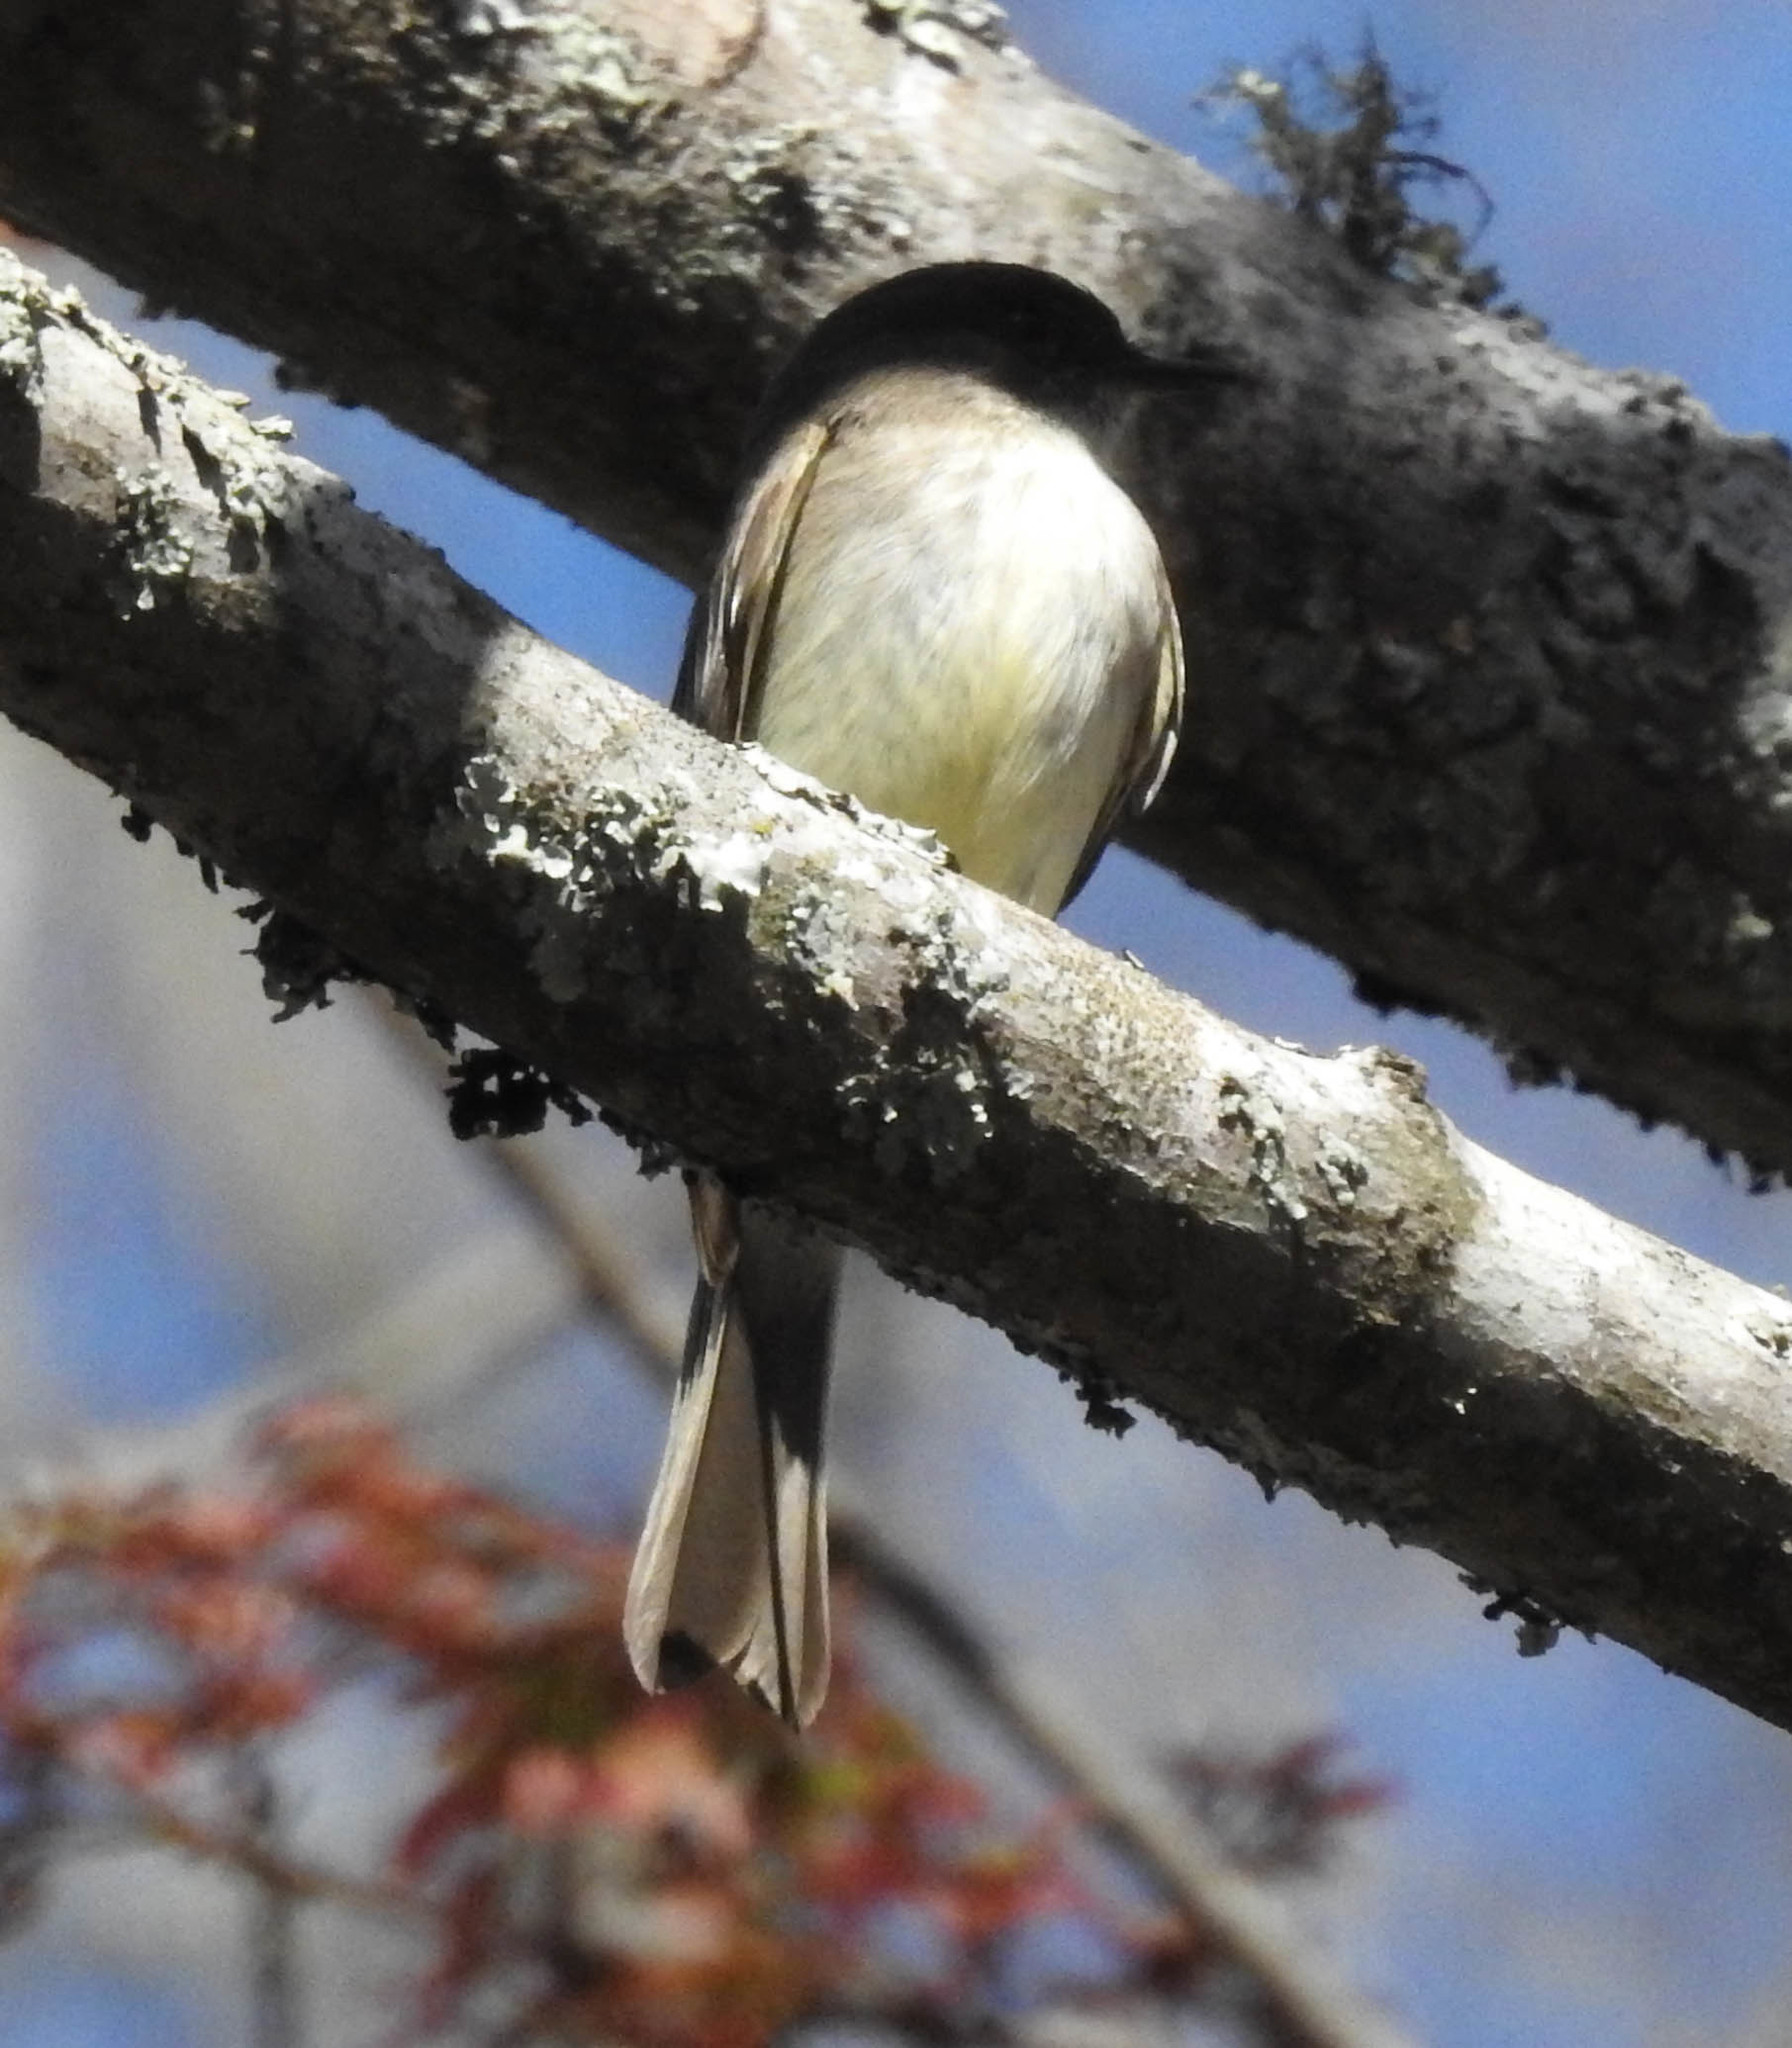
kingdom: Animalia
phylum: Chordata
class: Aves
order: Passeriformes
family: Tyrannidae
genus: Sayornis
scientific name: Sayornis phoebe
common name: Eastern phoebe
